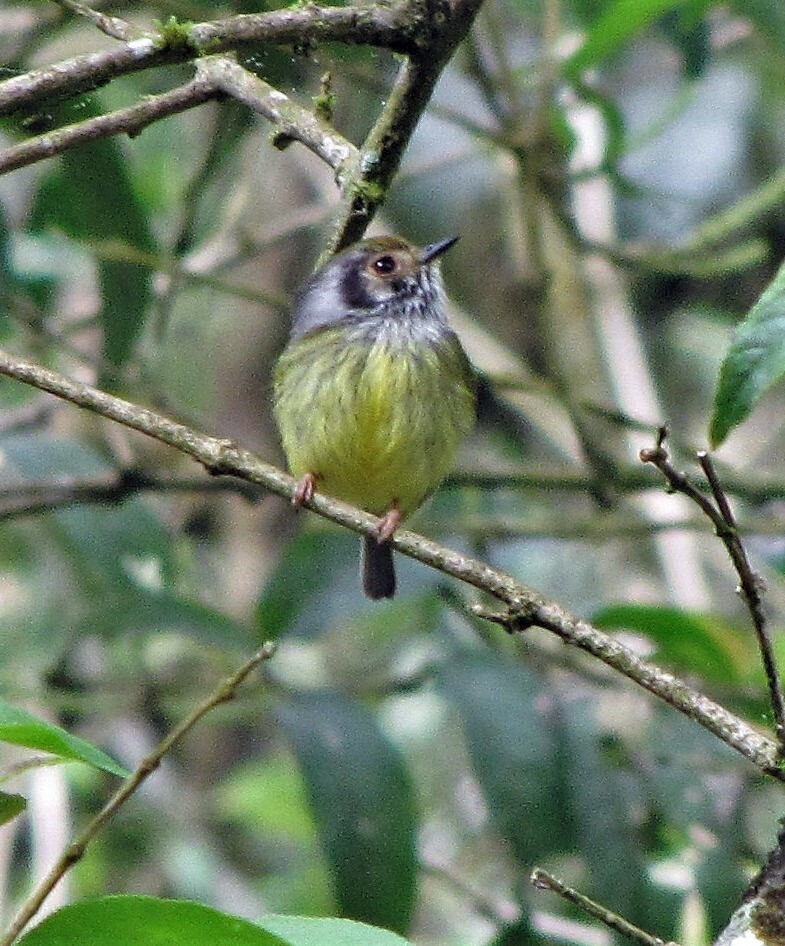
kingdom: Animalia
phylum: Chordata
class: Aves
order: Passeriformes
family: Tyrannidae
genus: Myiornis
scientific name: Myiornis auricularis
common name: Eared pygmy tyrant
